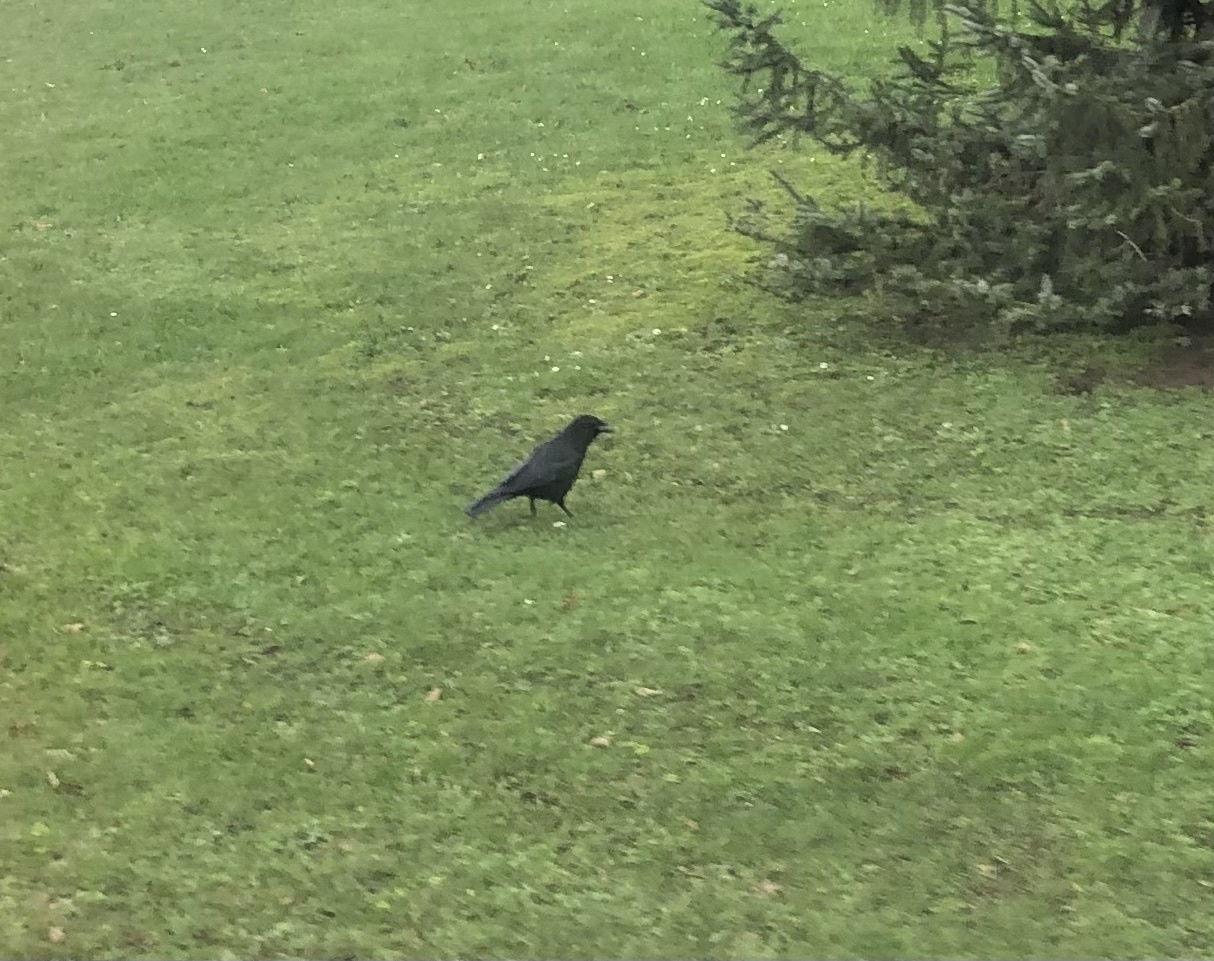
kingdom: Animalia
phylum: Chordata
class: Aves
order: Passeriformes
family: Corvidae
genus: Corvus
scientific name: Corvus corone
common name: Carrion crow
